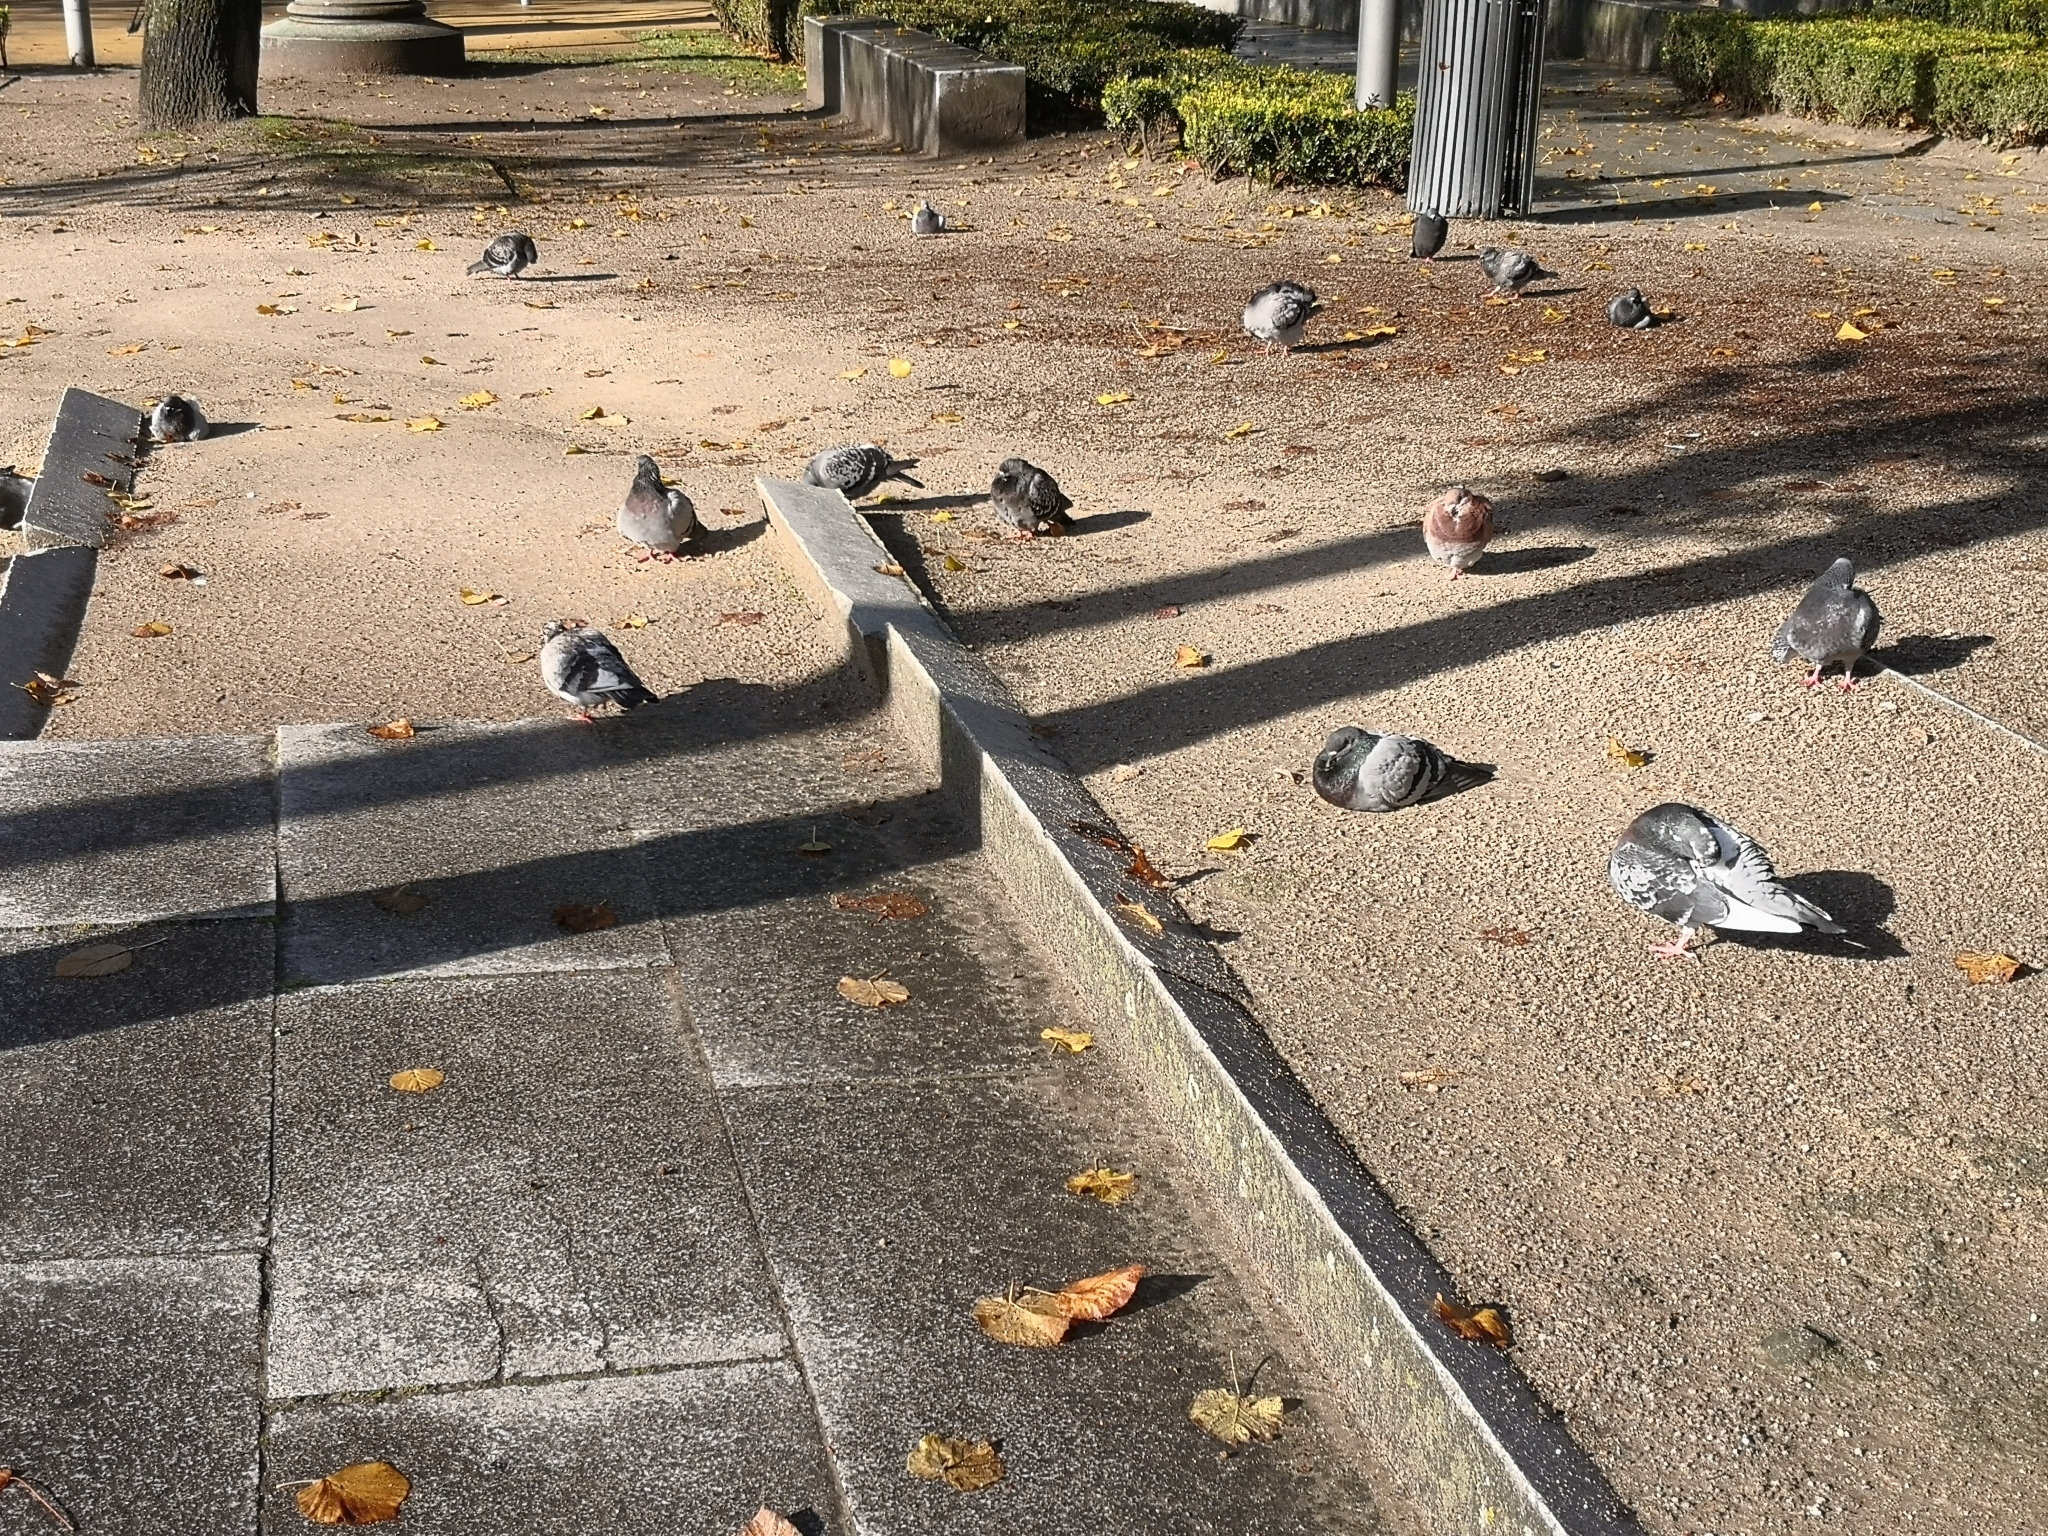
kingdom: Animalia
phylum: Chordata
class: Aves
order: Columbiformes
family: Columbidae
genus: Columba
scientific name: Columba livia
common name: Rock pigeon
